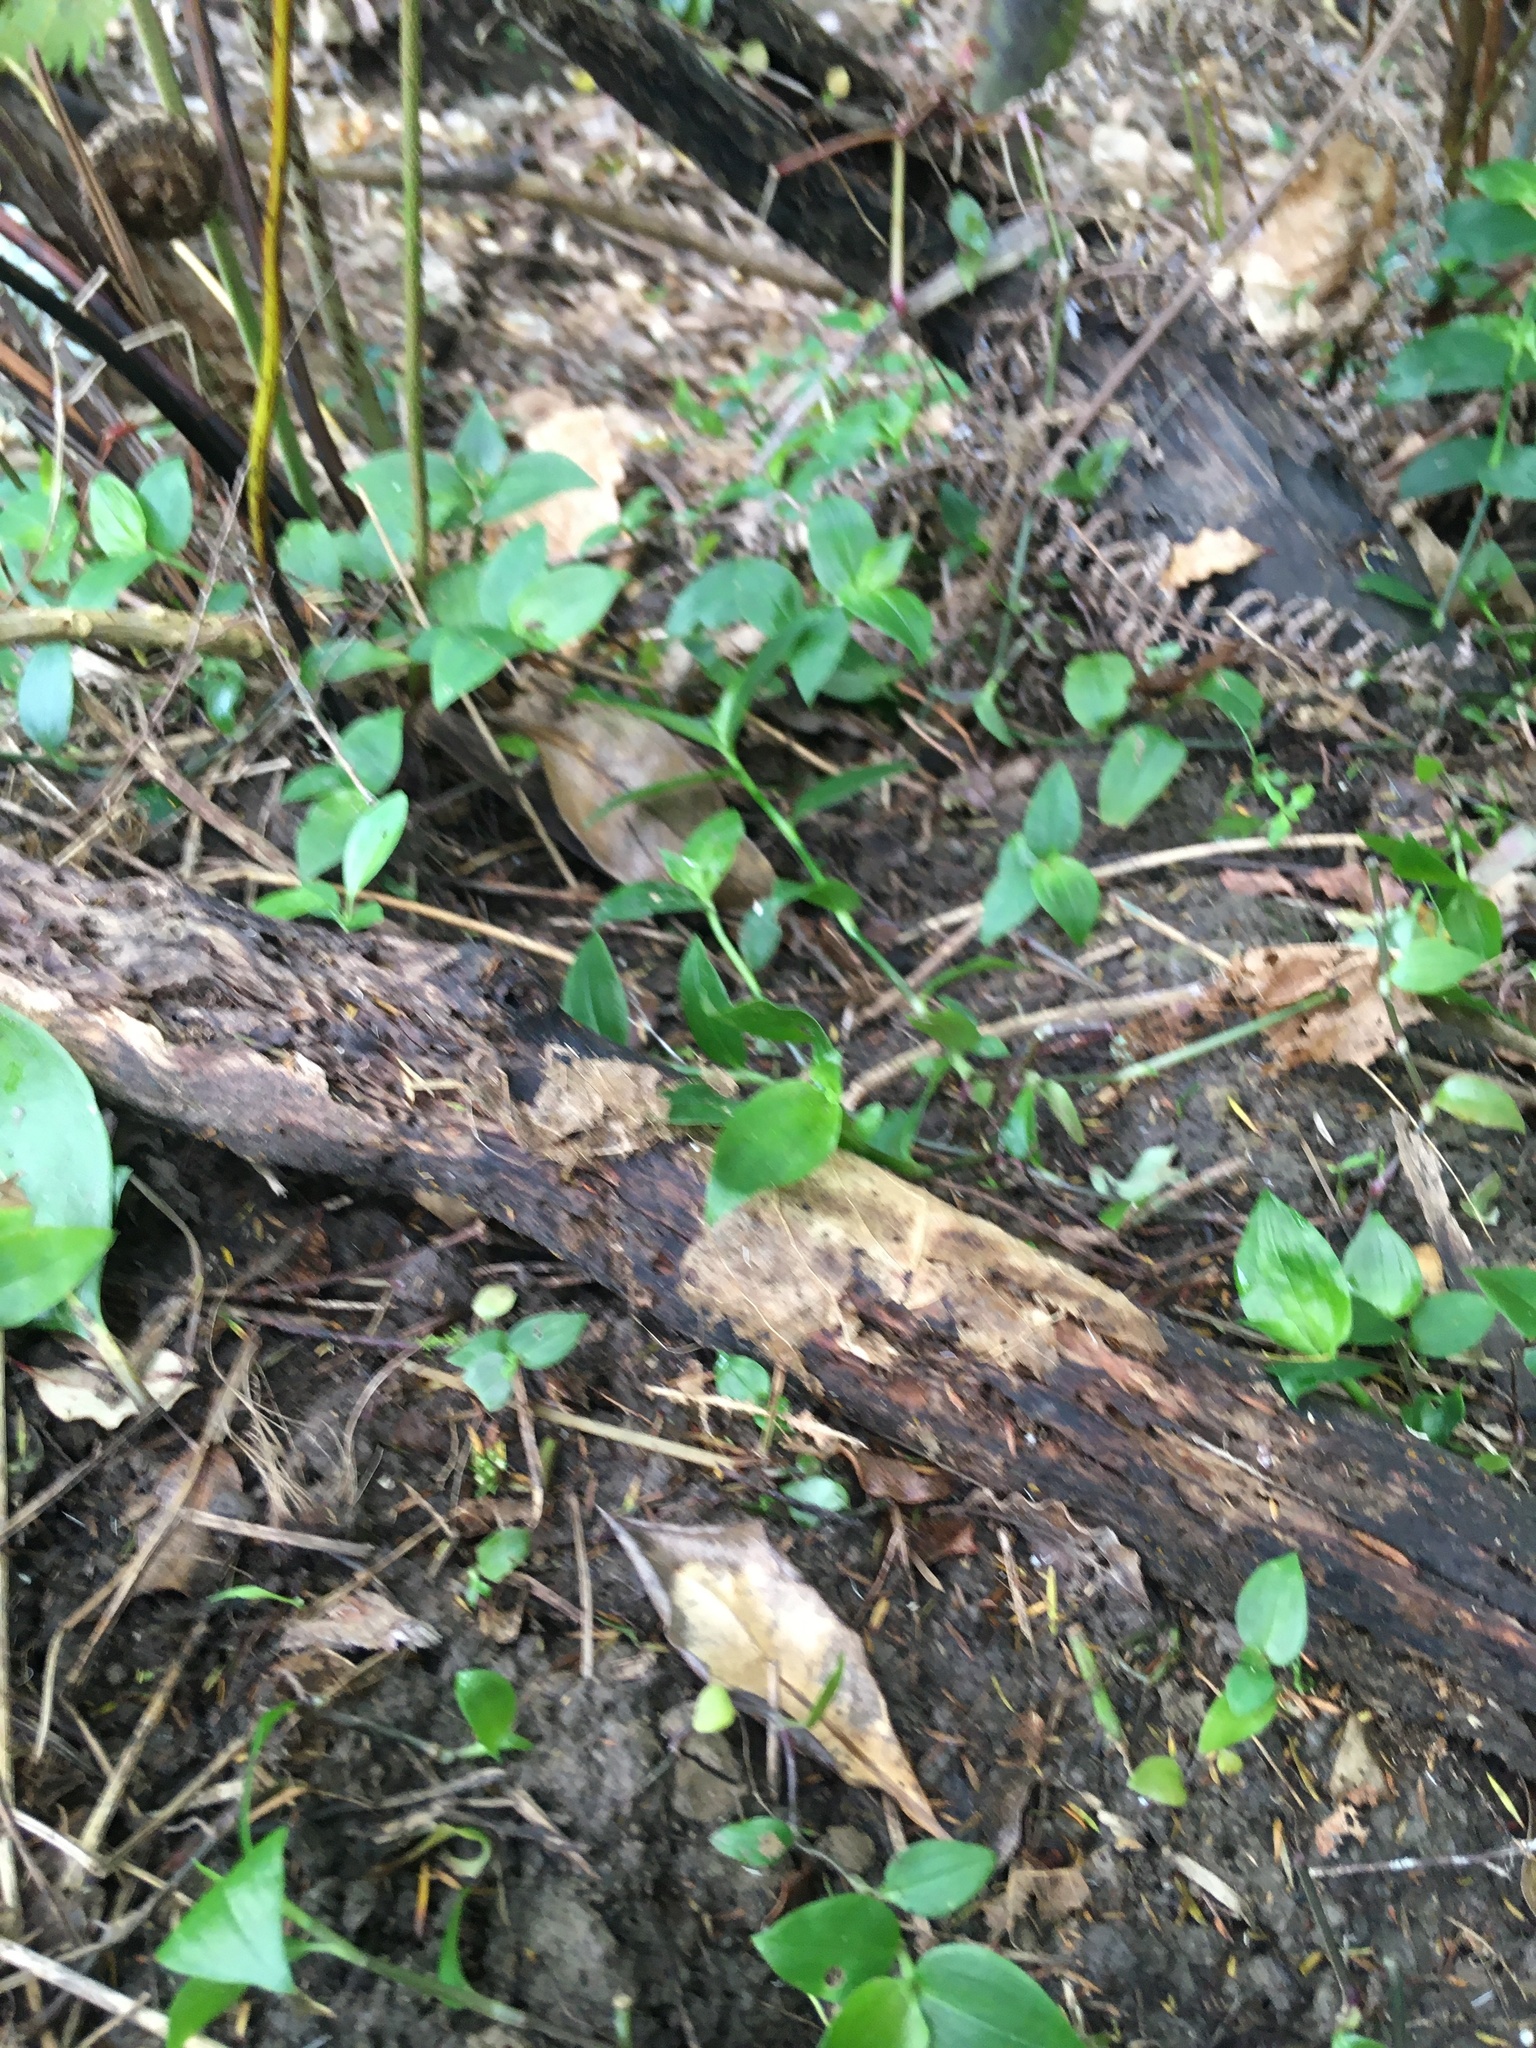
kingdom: Plantae
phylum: Tracheophyta
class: Magnoliopsida
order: Gentianales
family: Rubiaceae
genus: Coprosma
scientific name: Coprosma robusta
